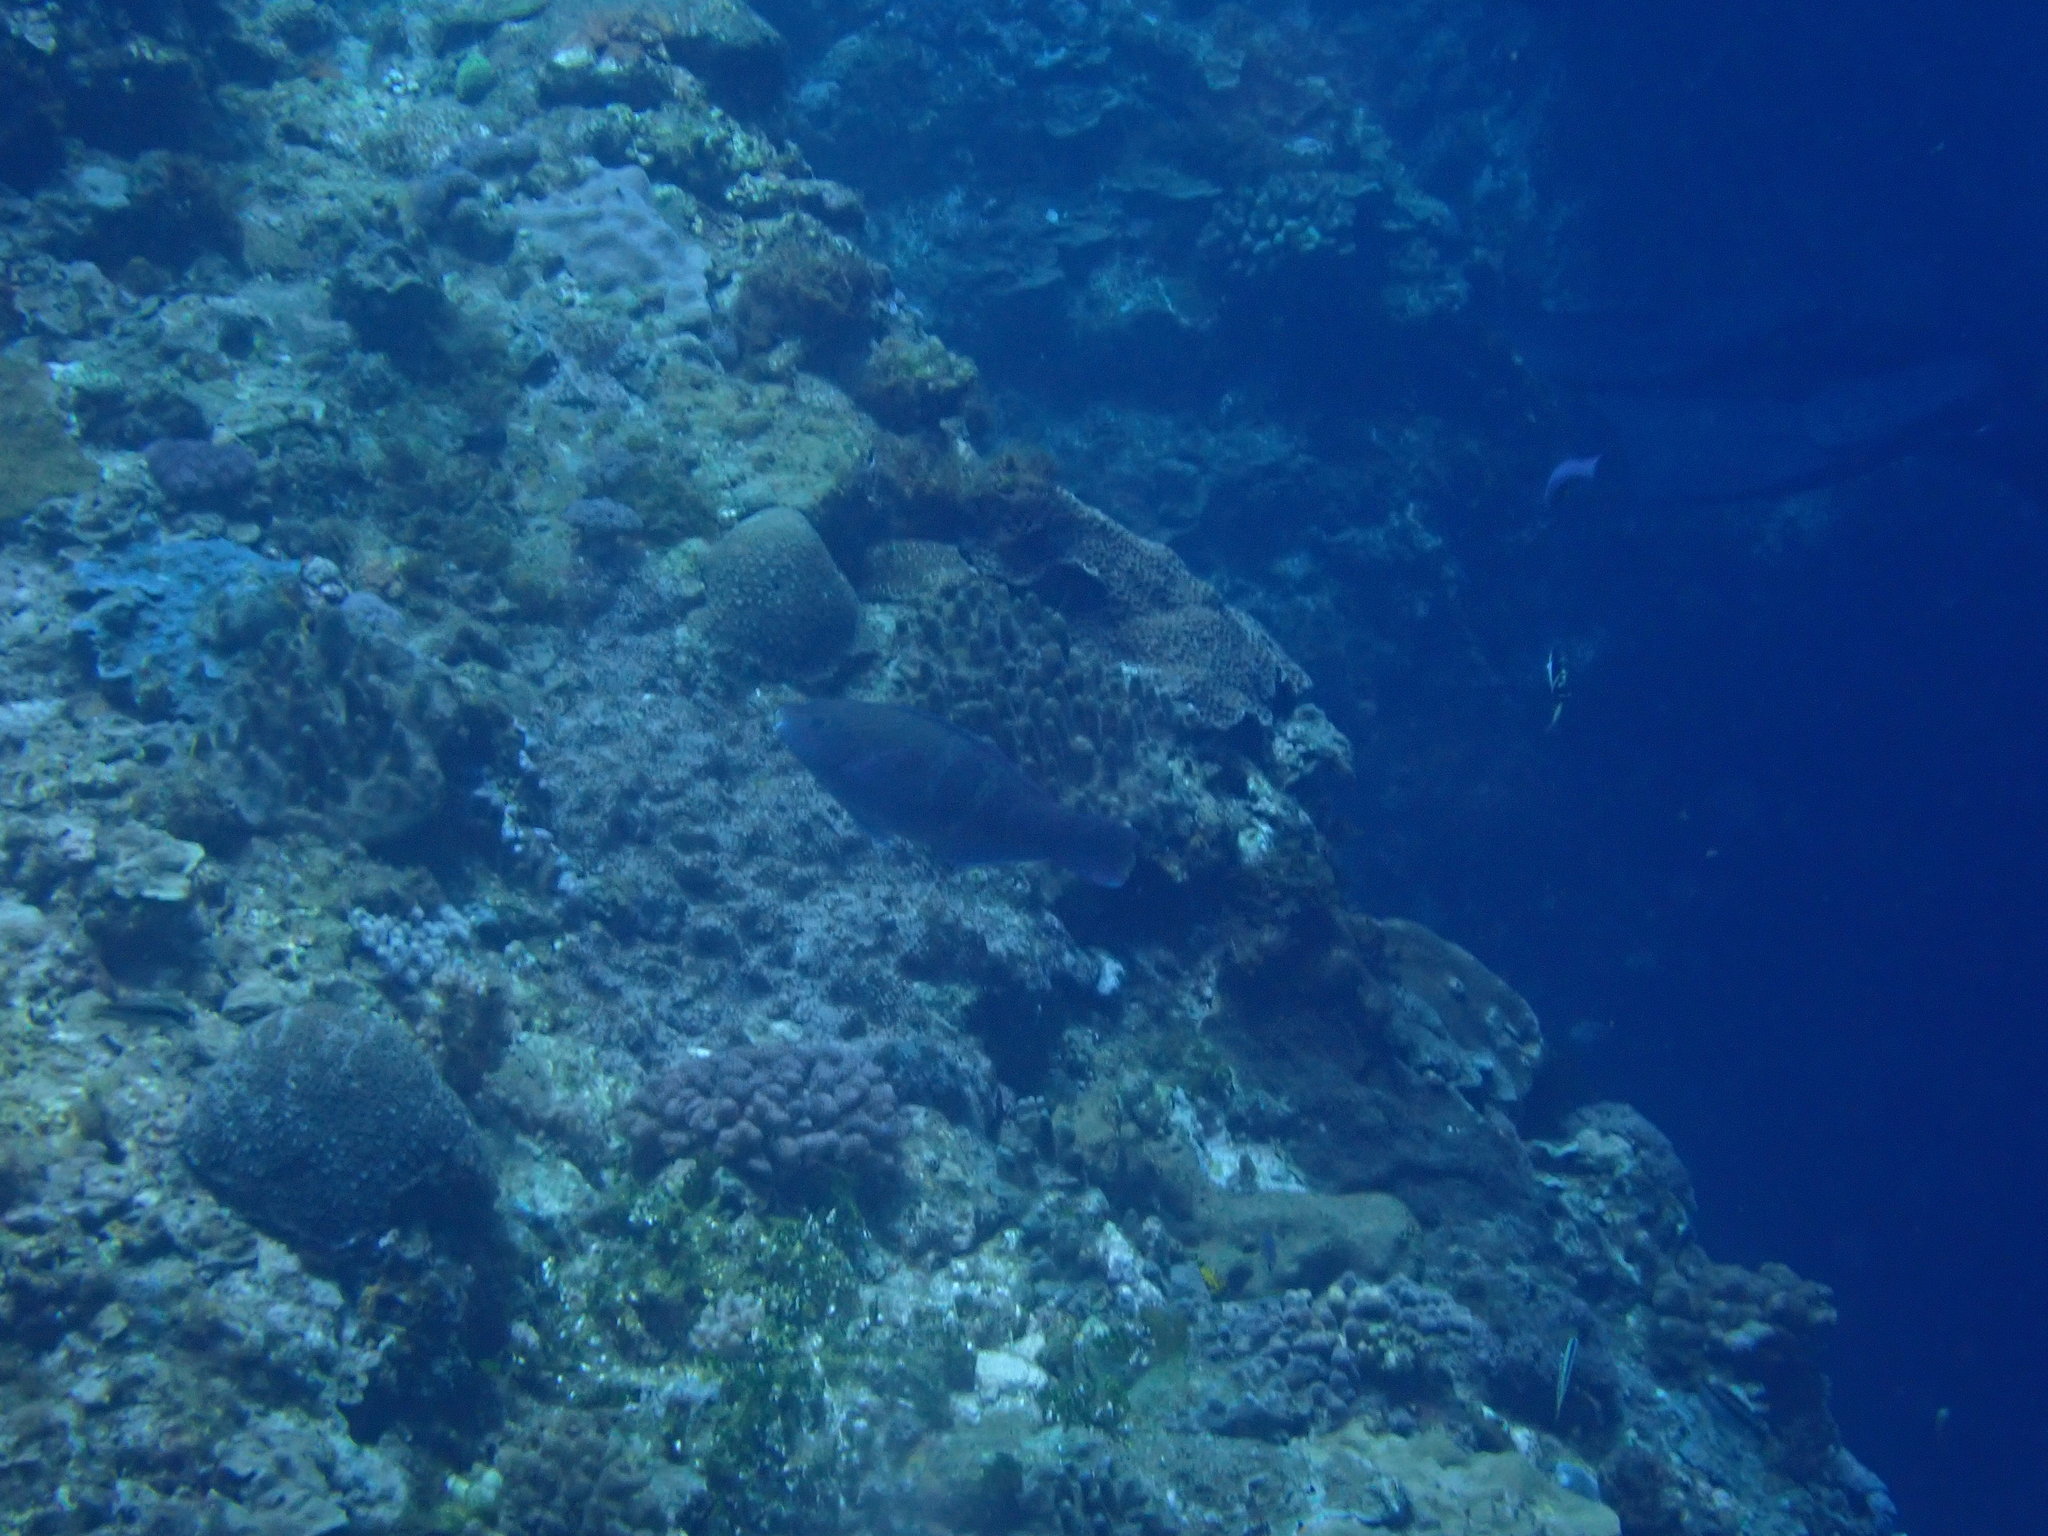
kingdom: Animalia
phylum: Chordata
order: Perciformes
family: Scaridae
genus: Scarus
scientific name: Scarus schlegeli
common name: Schlegel's parrotfish
